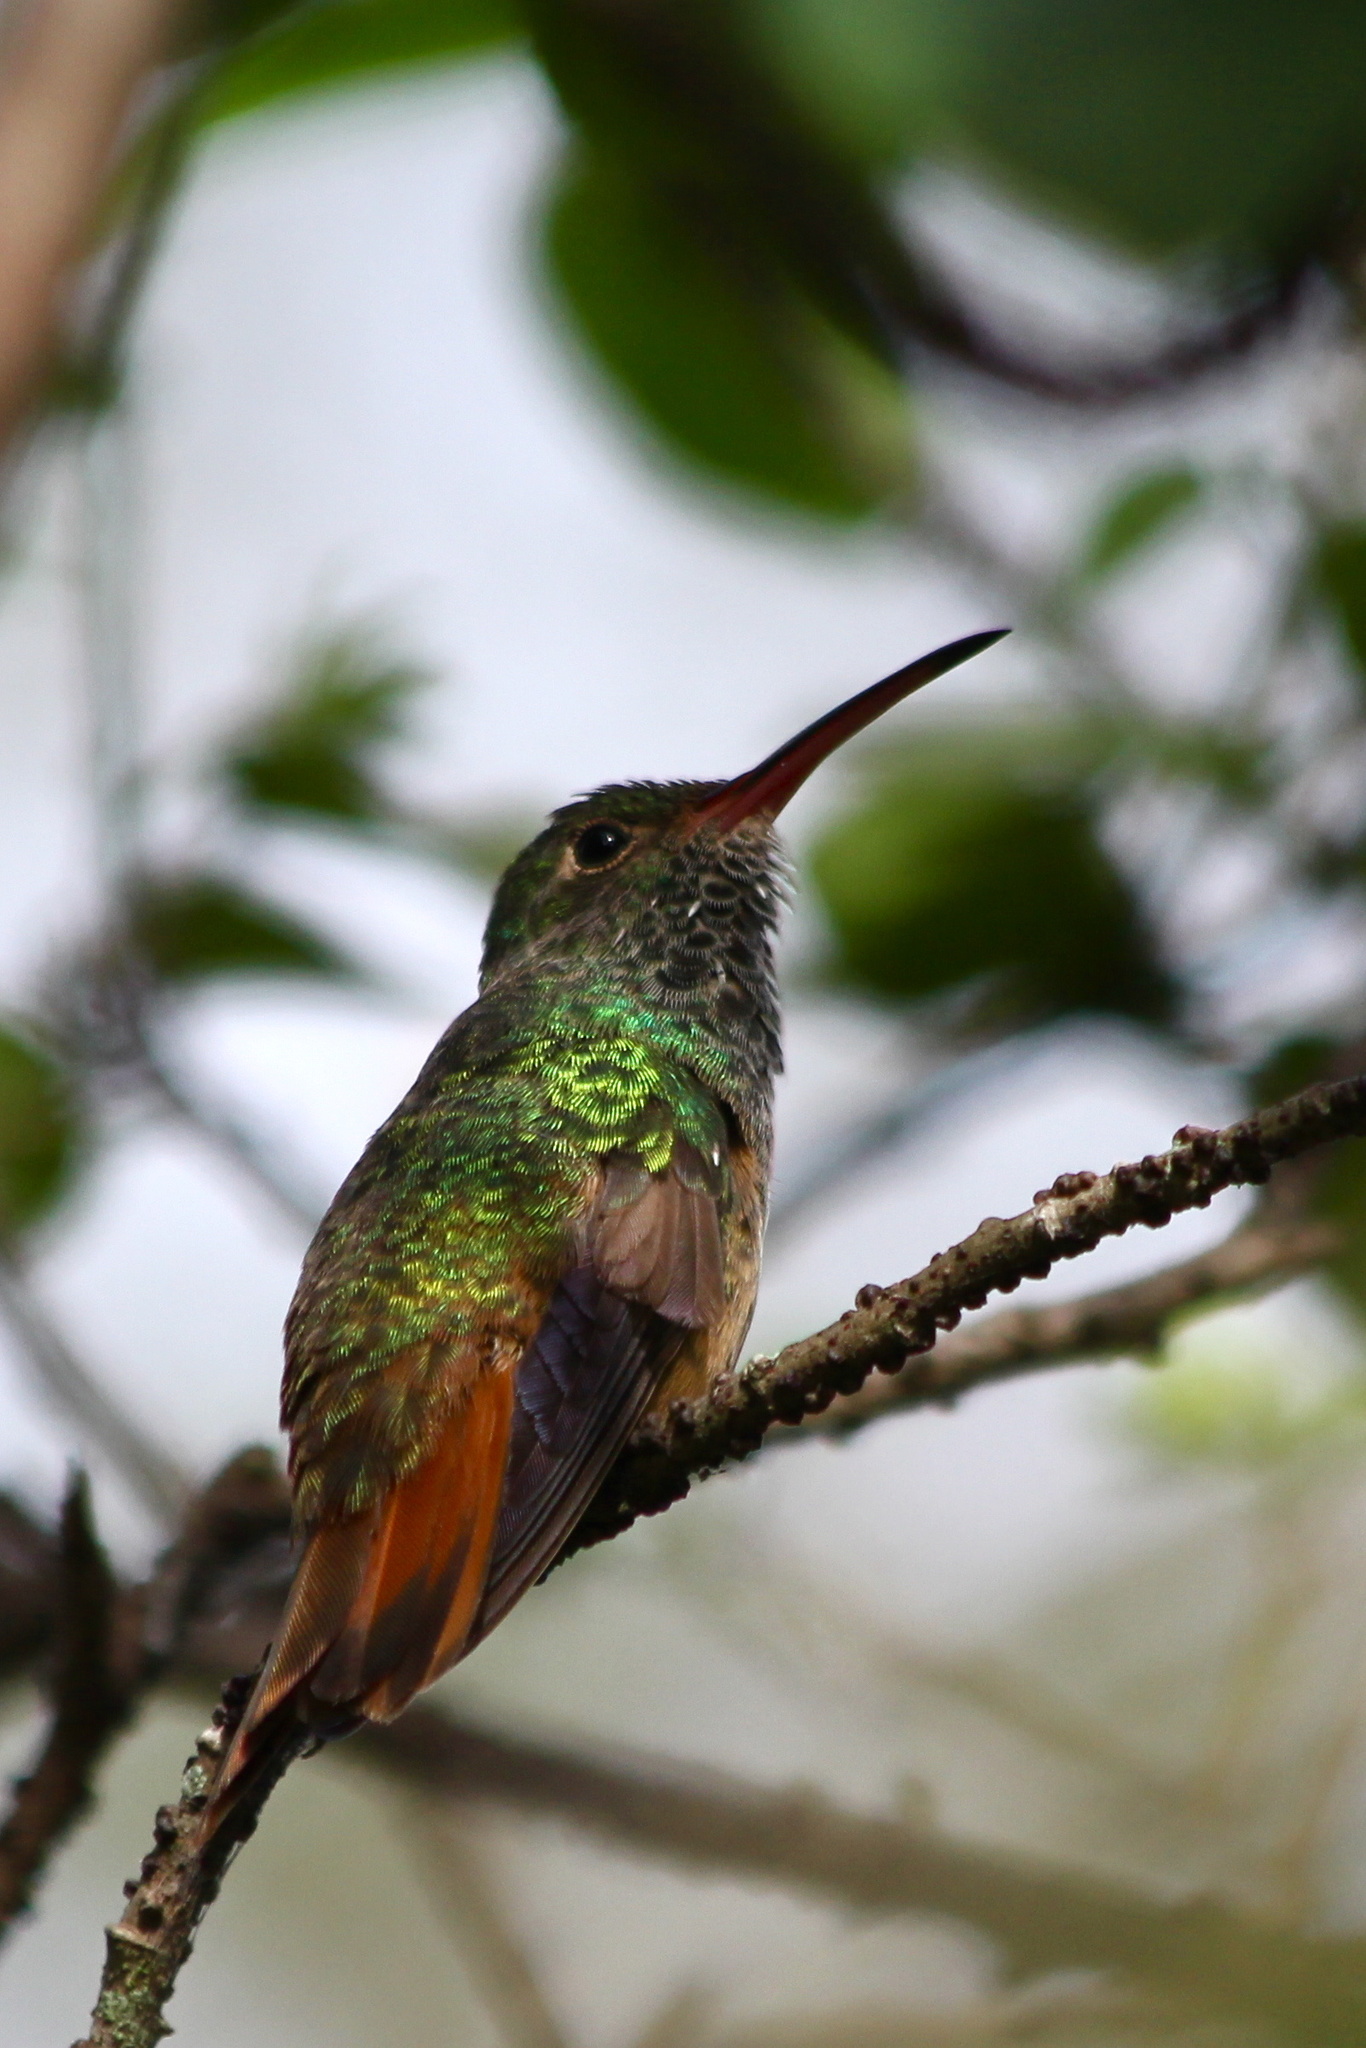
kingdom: Animalia
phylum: Chordata
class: Aves
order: Apodiformes
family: Trochilidae
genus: Amazilia
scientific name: Amazilia yucatanensis
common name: Buff-bellied hummingbird
